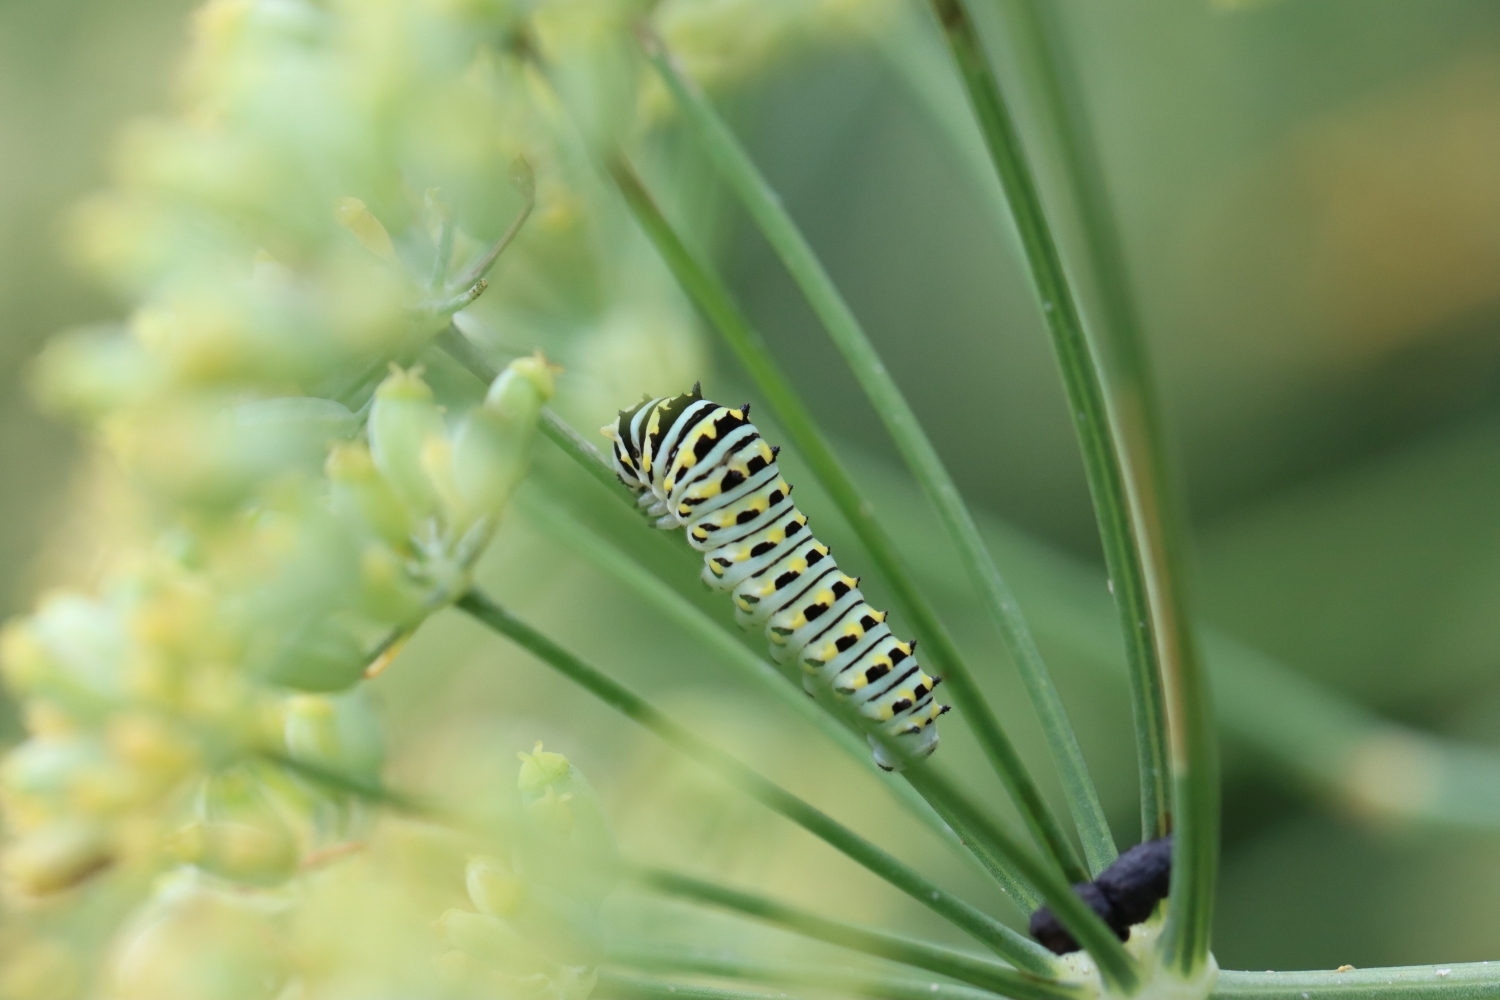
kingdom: Animalia
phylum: Arthropoda
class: Insecta
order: Lepidoptera
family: Papilionidae
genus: Papilio
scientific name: Papilio polyxenes
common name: Black swallowtail
